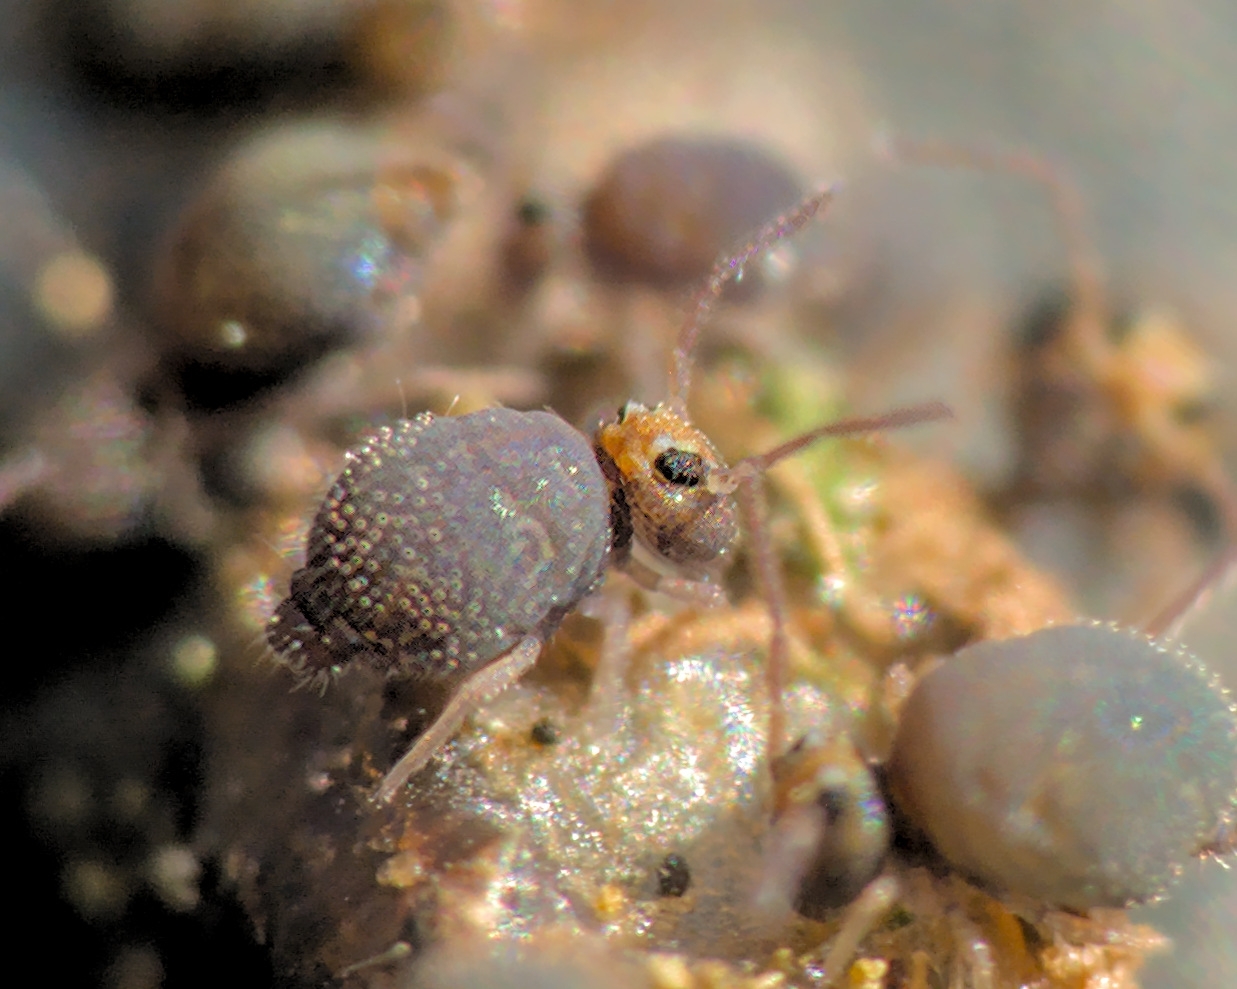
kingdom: Animalia
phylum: Arthropoda
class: Collembola
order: Symphypleona
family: Bourletiellidae
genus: Bourletiella
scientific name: Bourletiella hortensis
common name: Garden springtail
